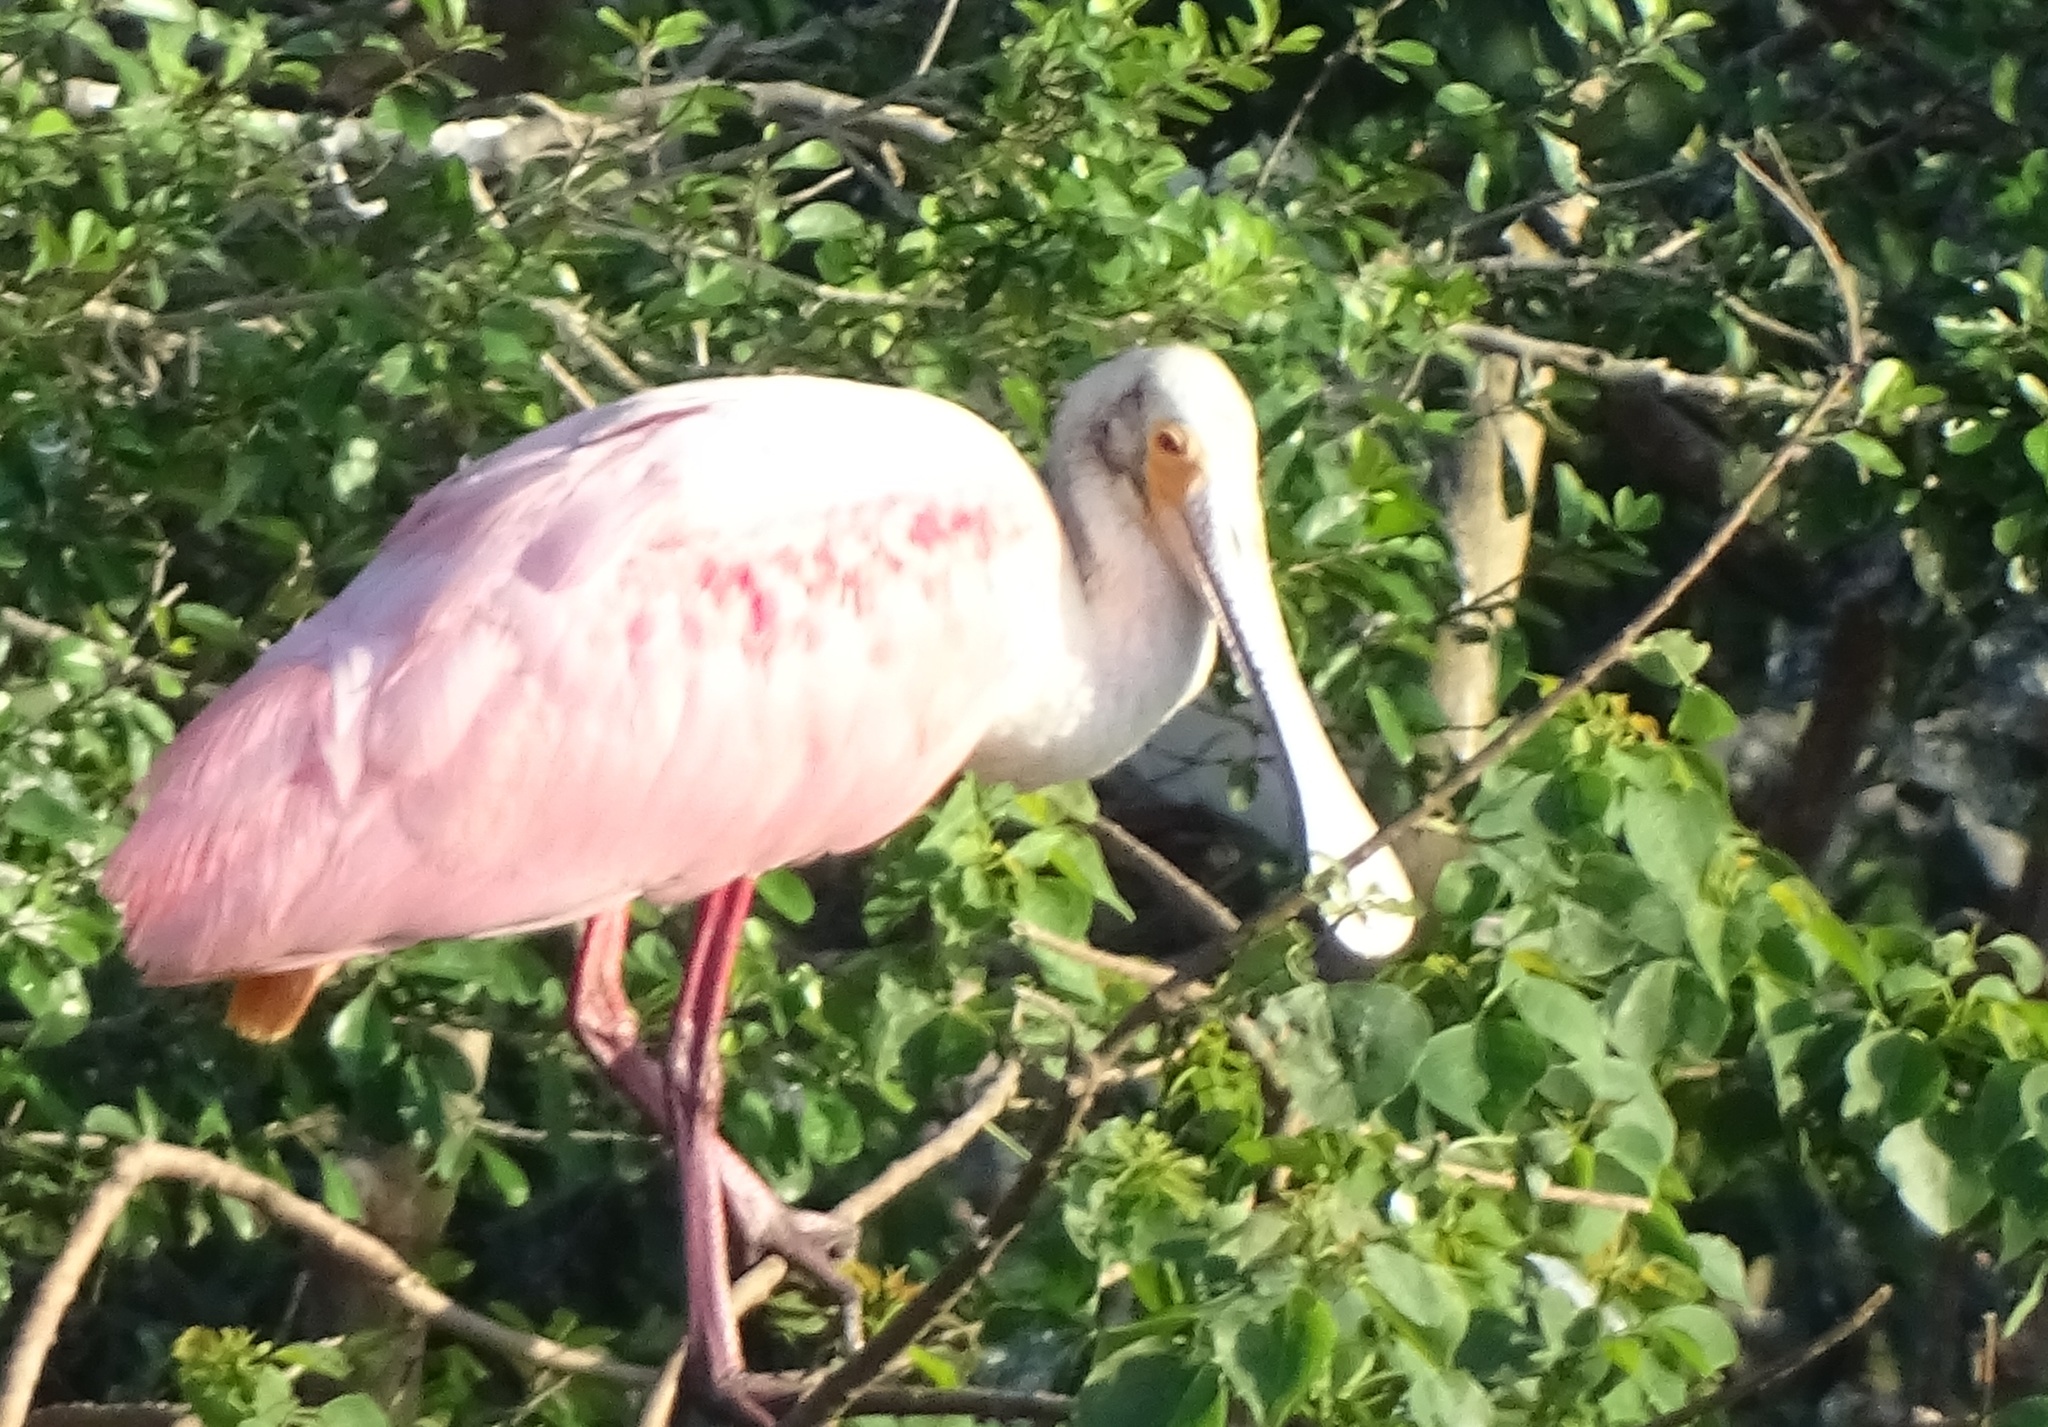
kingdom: Animalia
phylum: Chordata
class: Aves
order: Pelecaniformes
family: Threskiornithidae
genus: Platalea
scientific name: Platalea ajaja
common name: Roseate spoonbill
